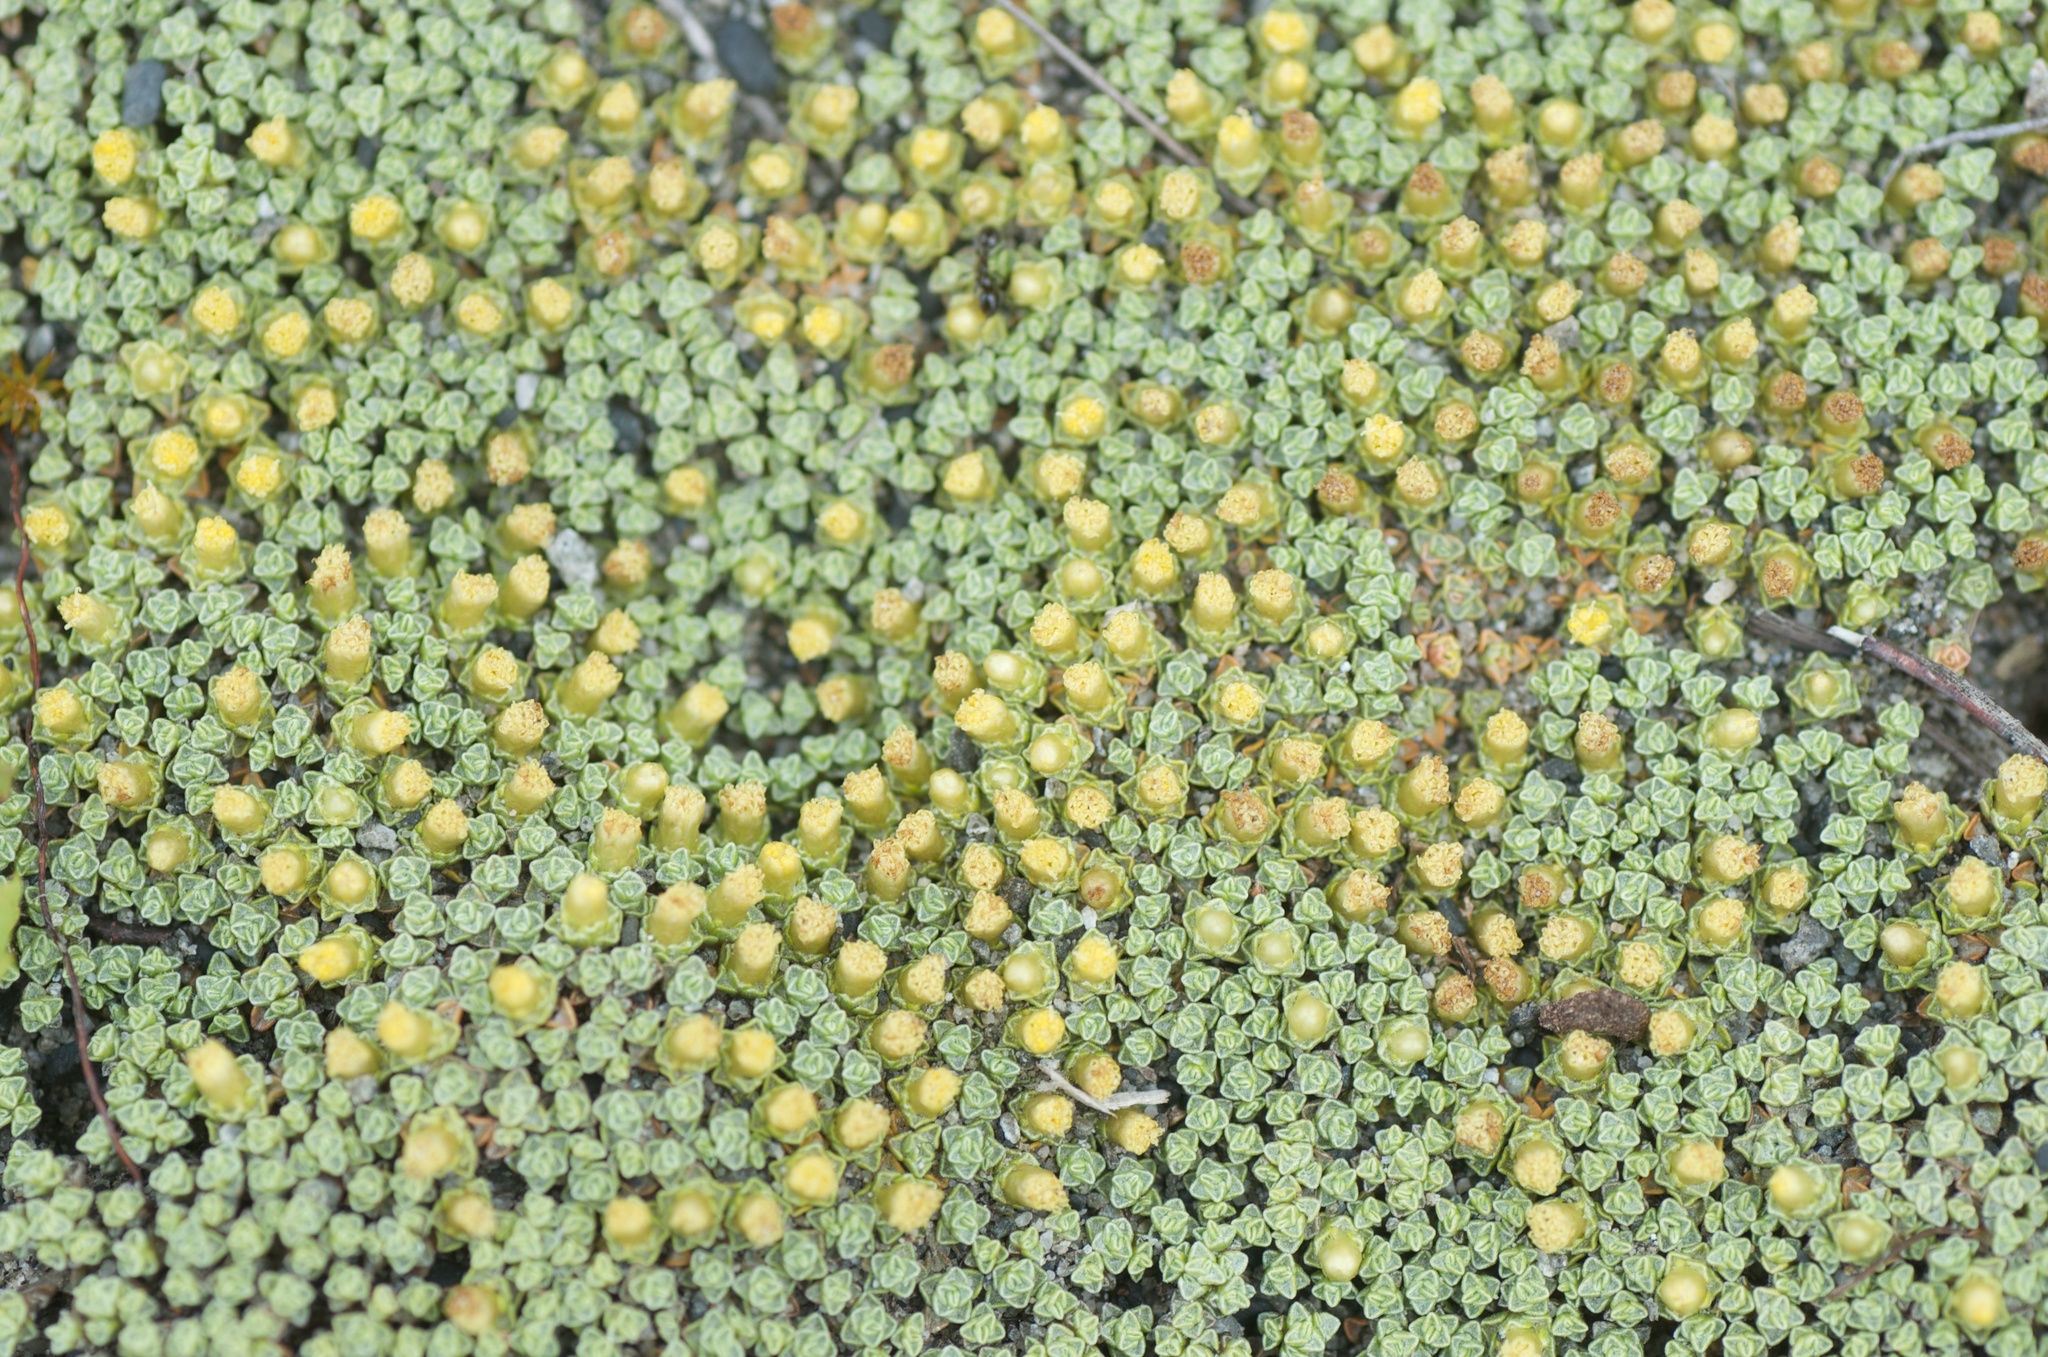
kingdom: Plantae
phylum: Tracheophyta
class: Magnoliopsida
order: Asterales
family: Asteraceae
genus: Raoulia
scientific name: Raoulia australis
